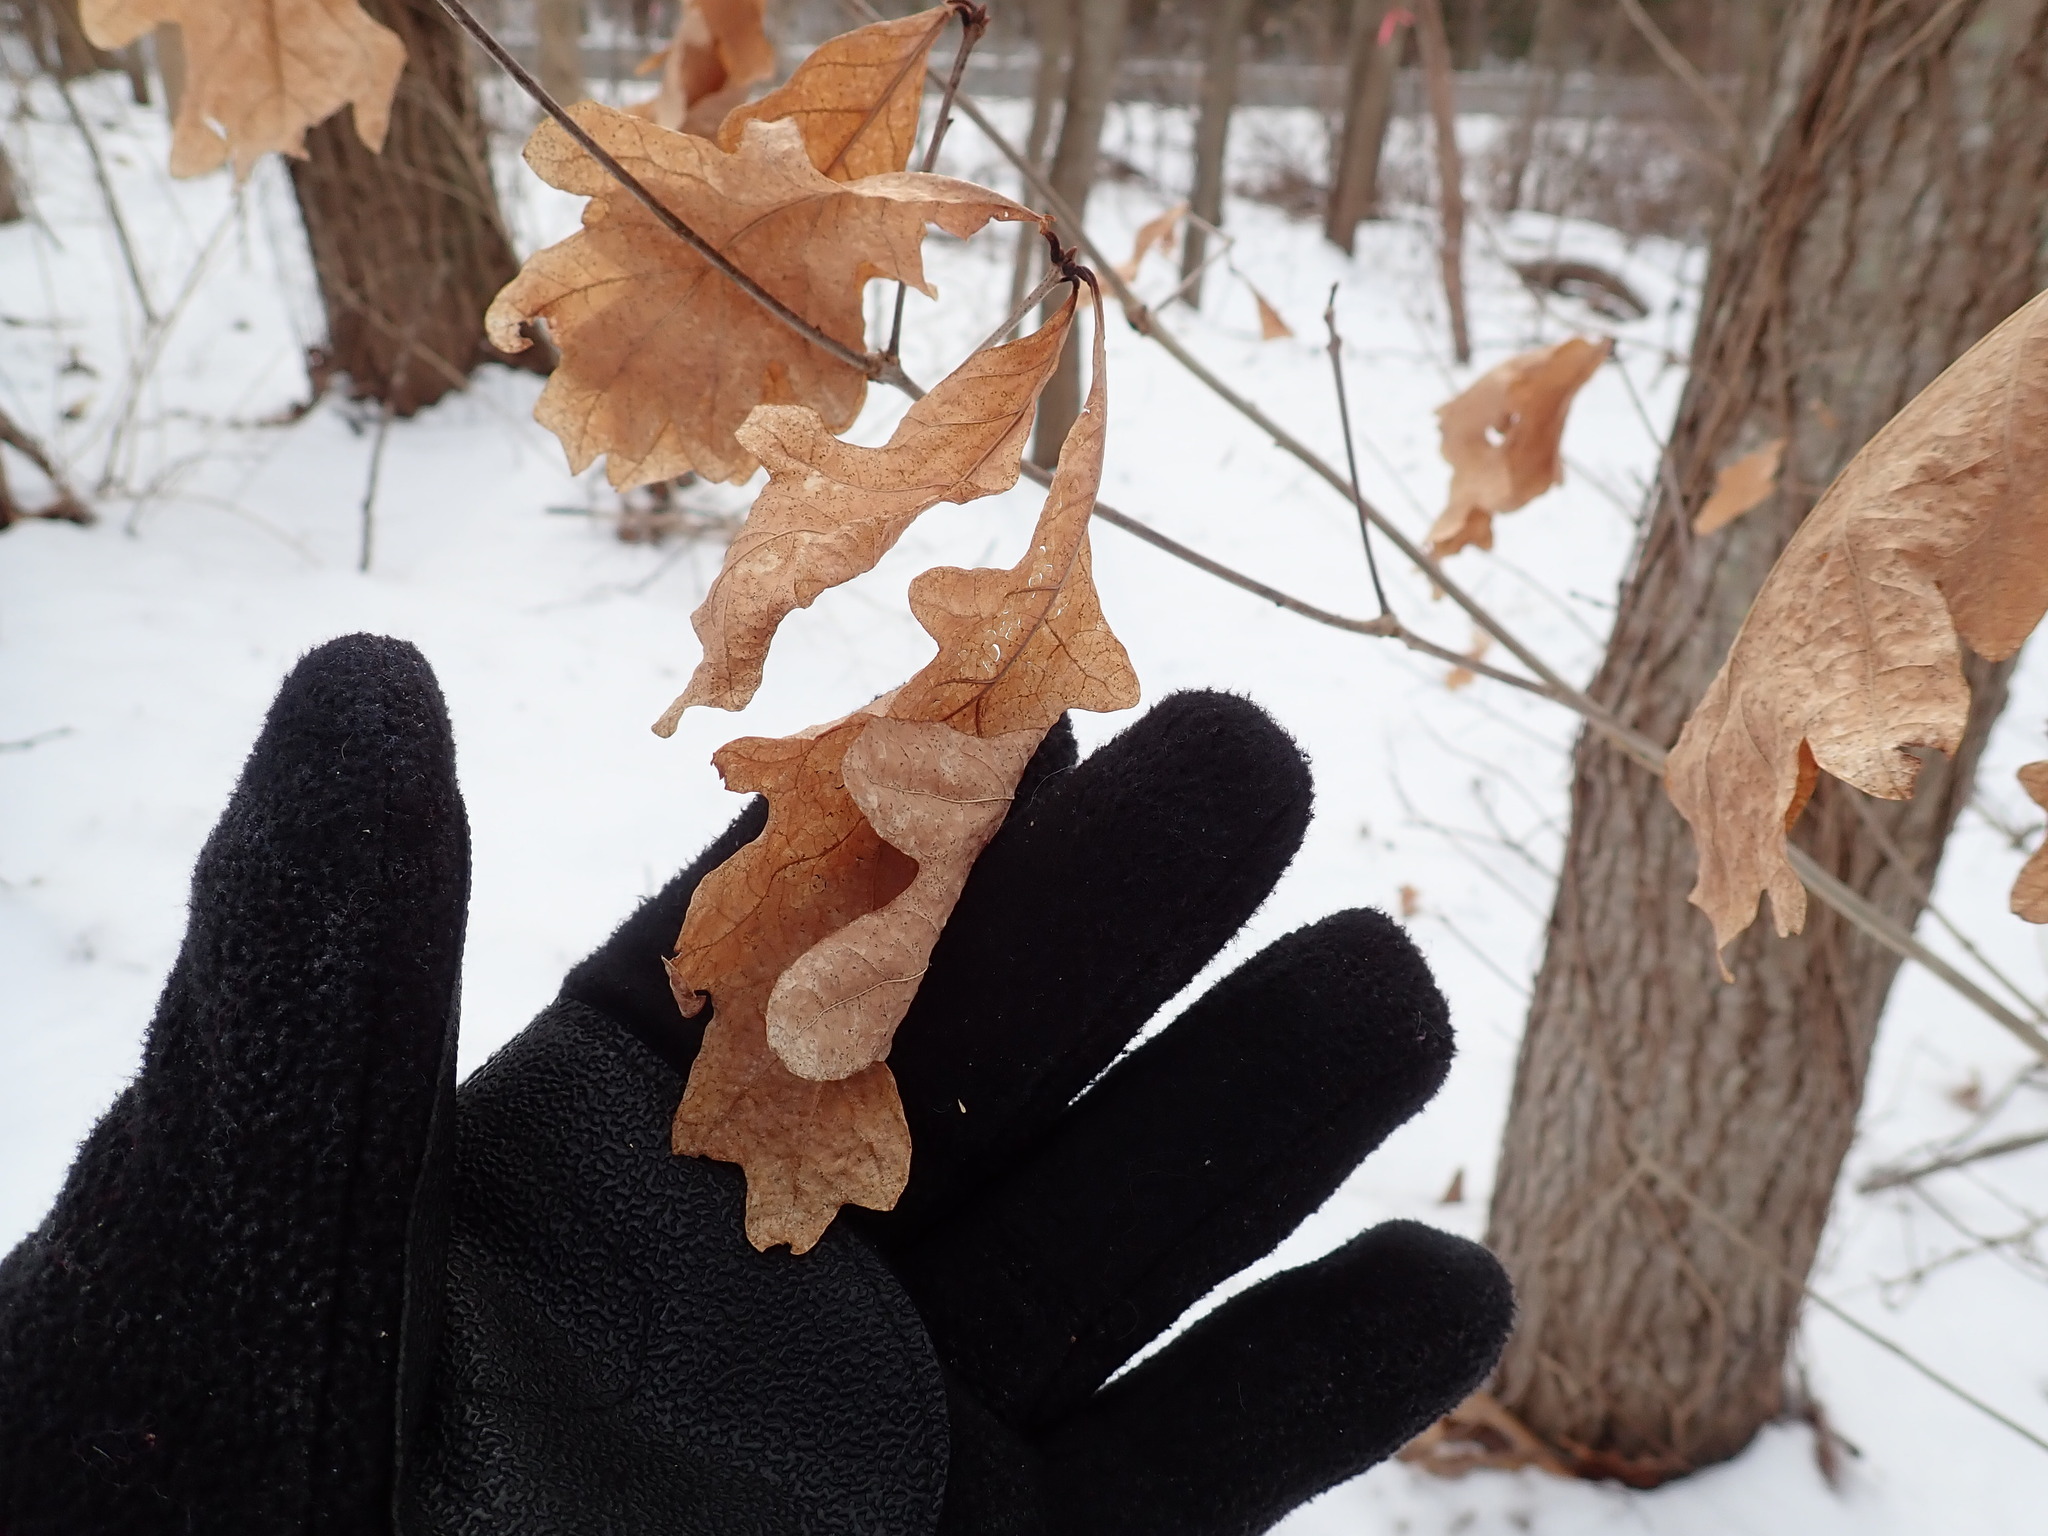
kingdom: Plantae
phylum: Tracheophyta
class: Magnoliopsida
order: Fagales
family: Fagaceae
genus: Quercus
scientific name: Quercus alba
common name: White oak
